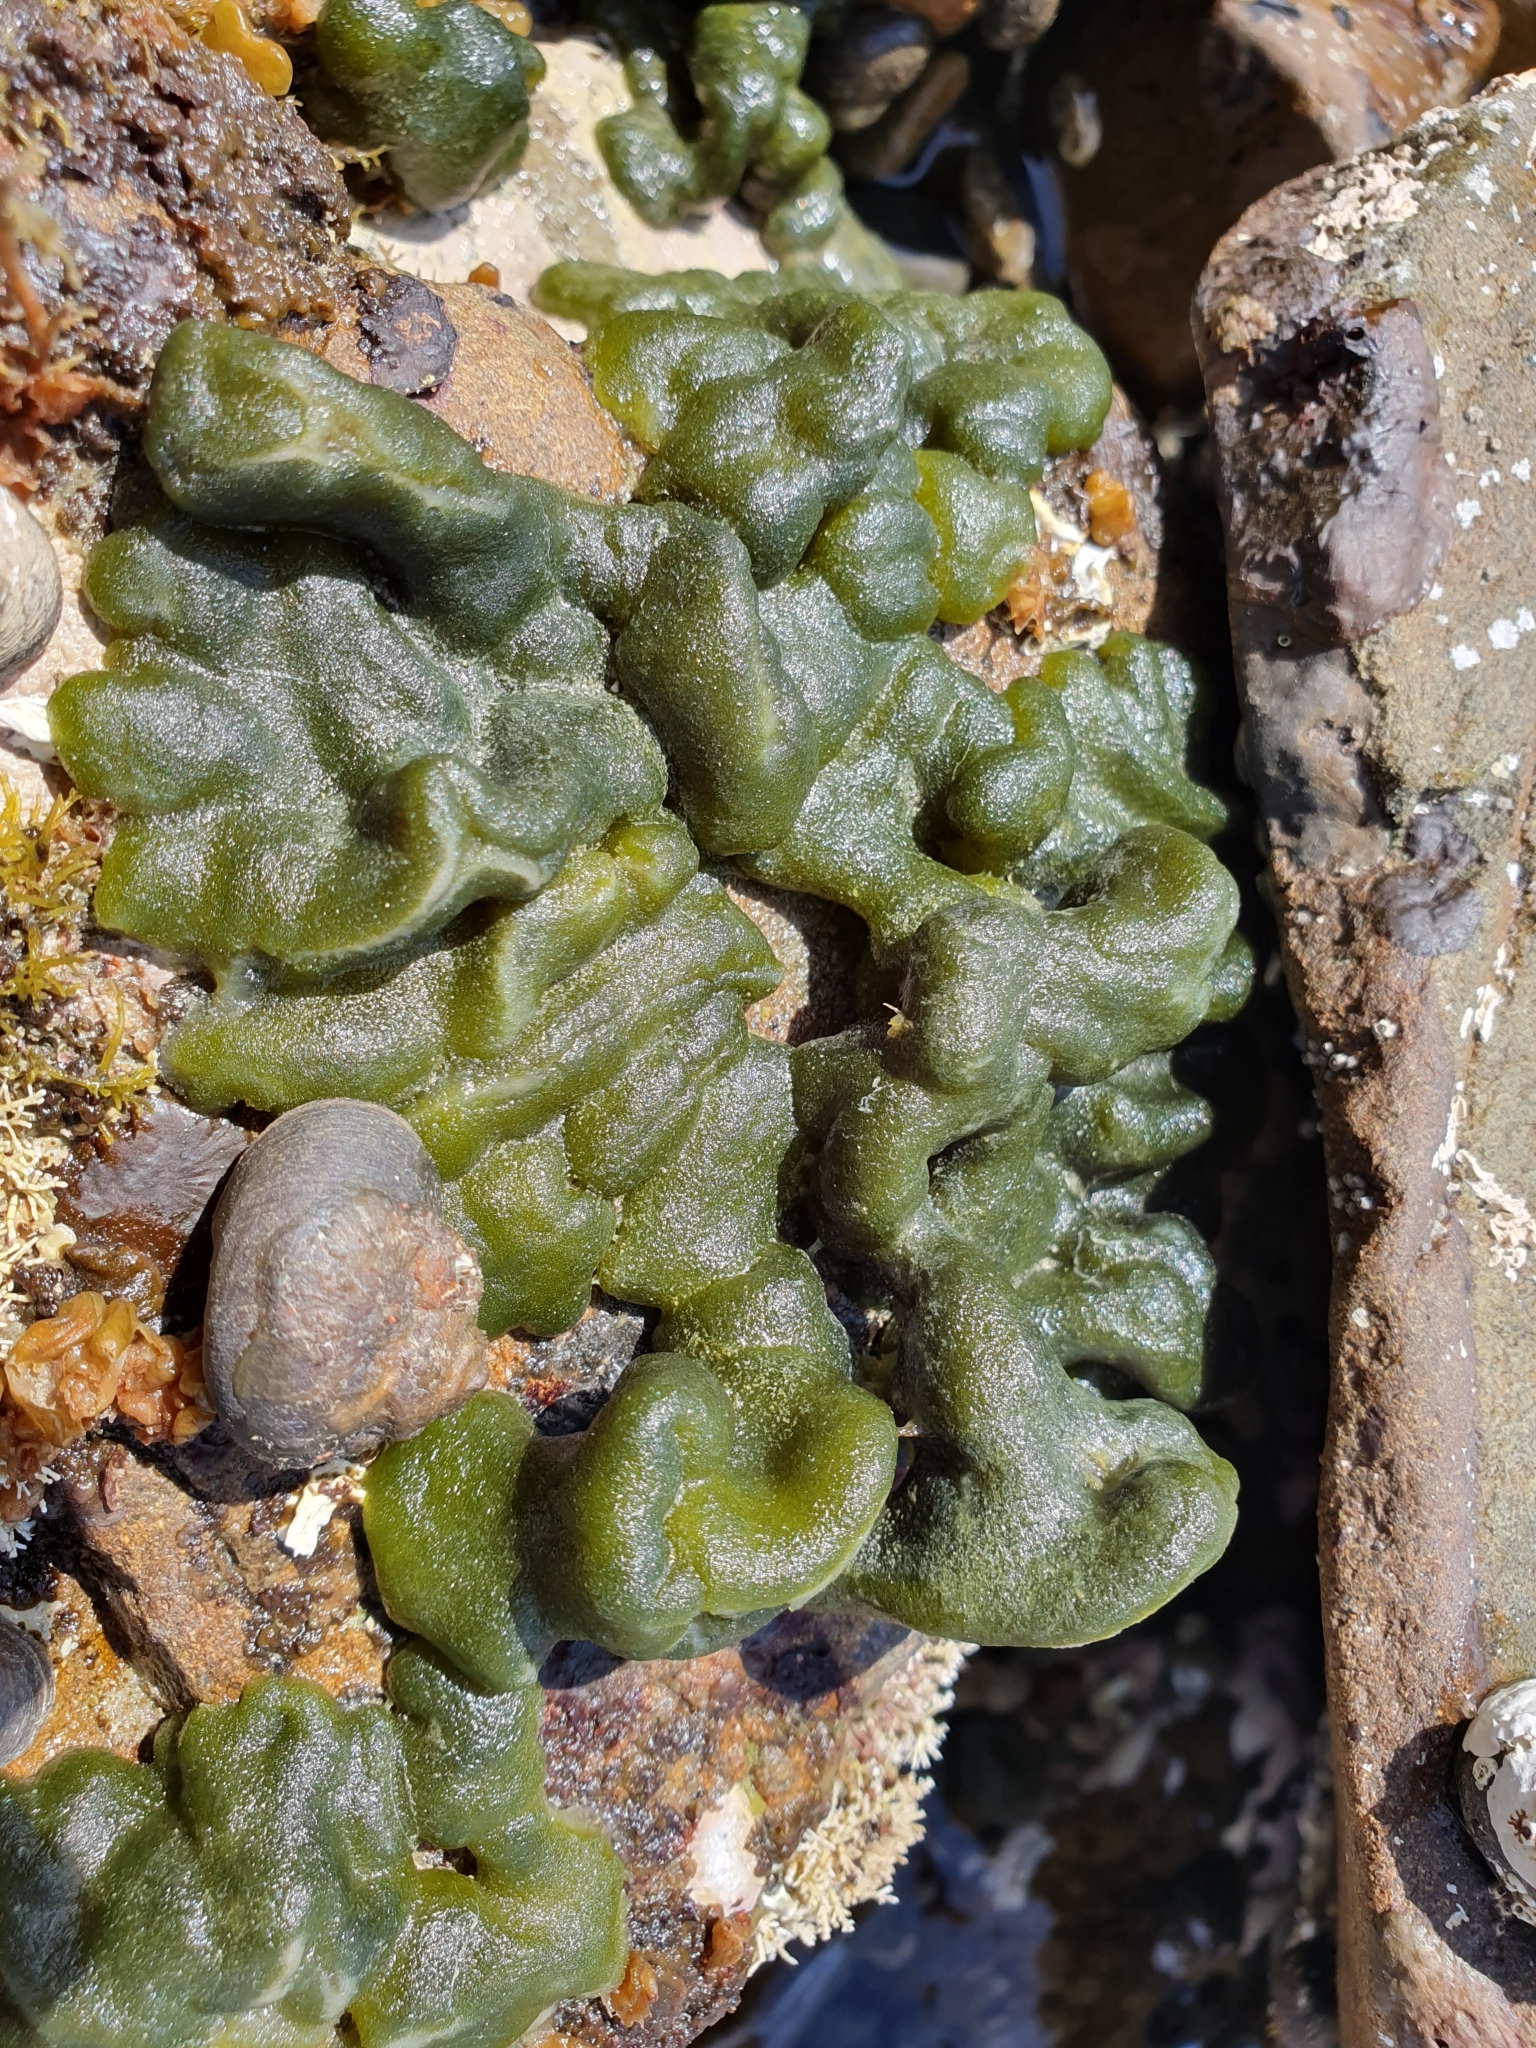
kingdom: Plantae
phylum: Chlorophyta
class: Ulvophyceae
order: Bryopsidales
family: Codiaceae
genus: Codium
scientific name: Codium convolutum
